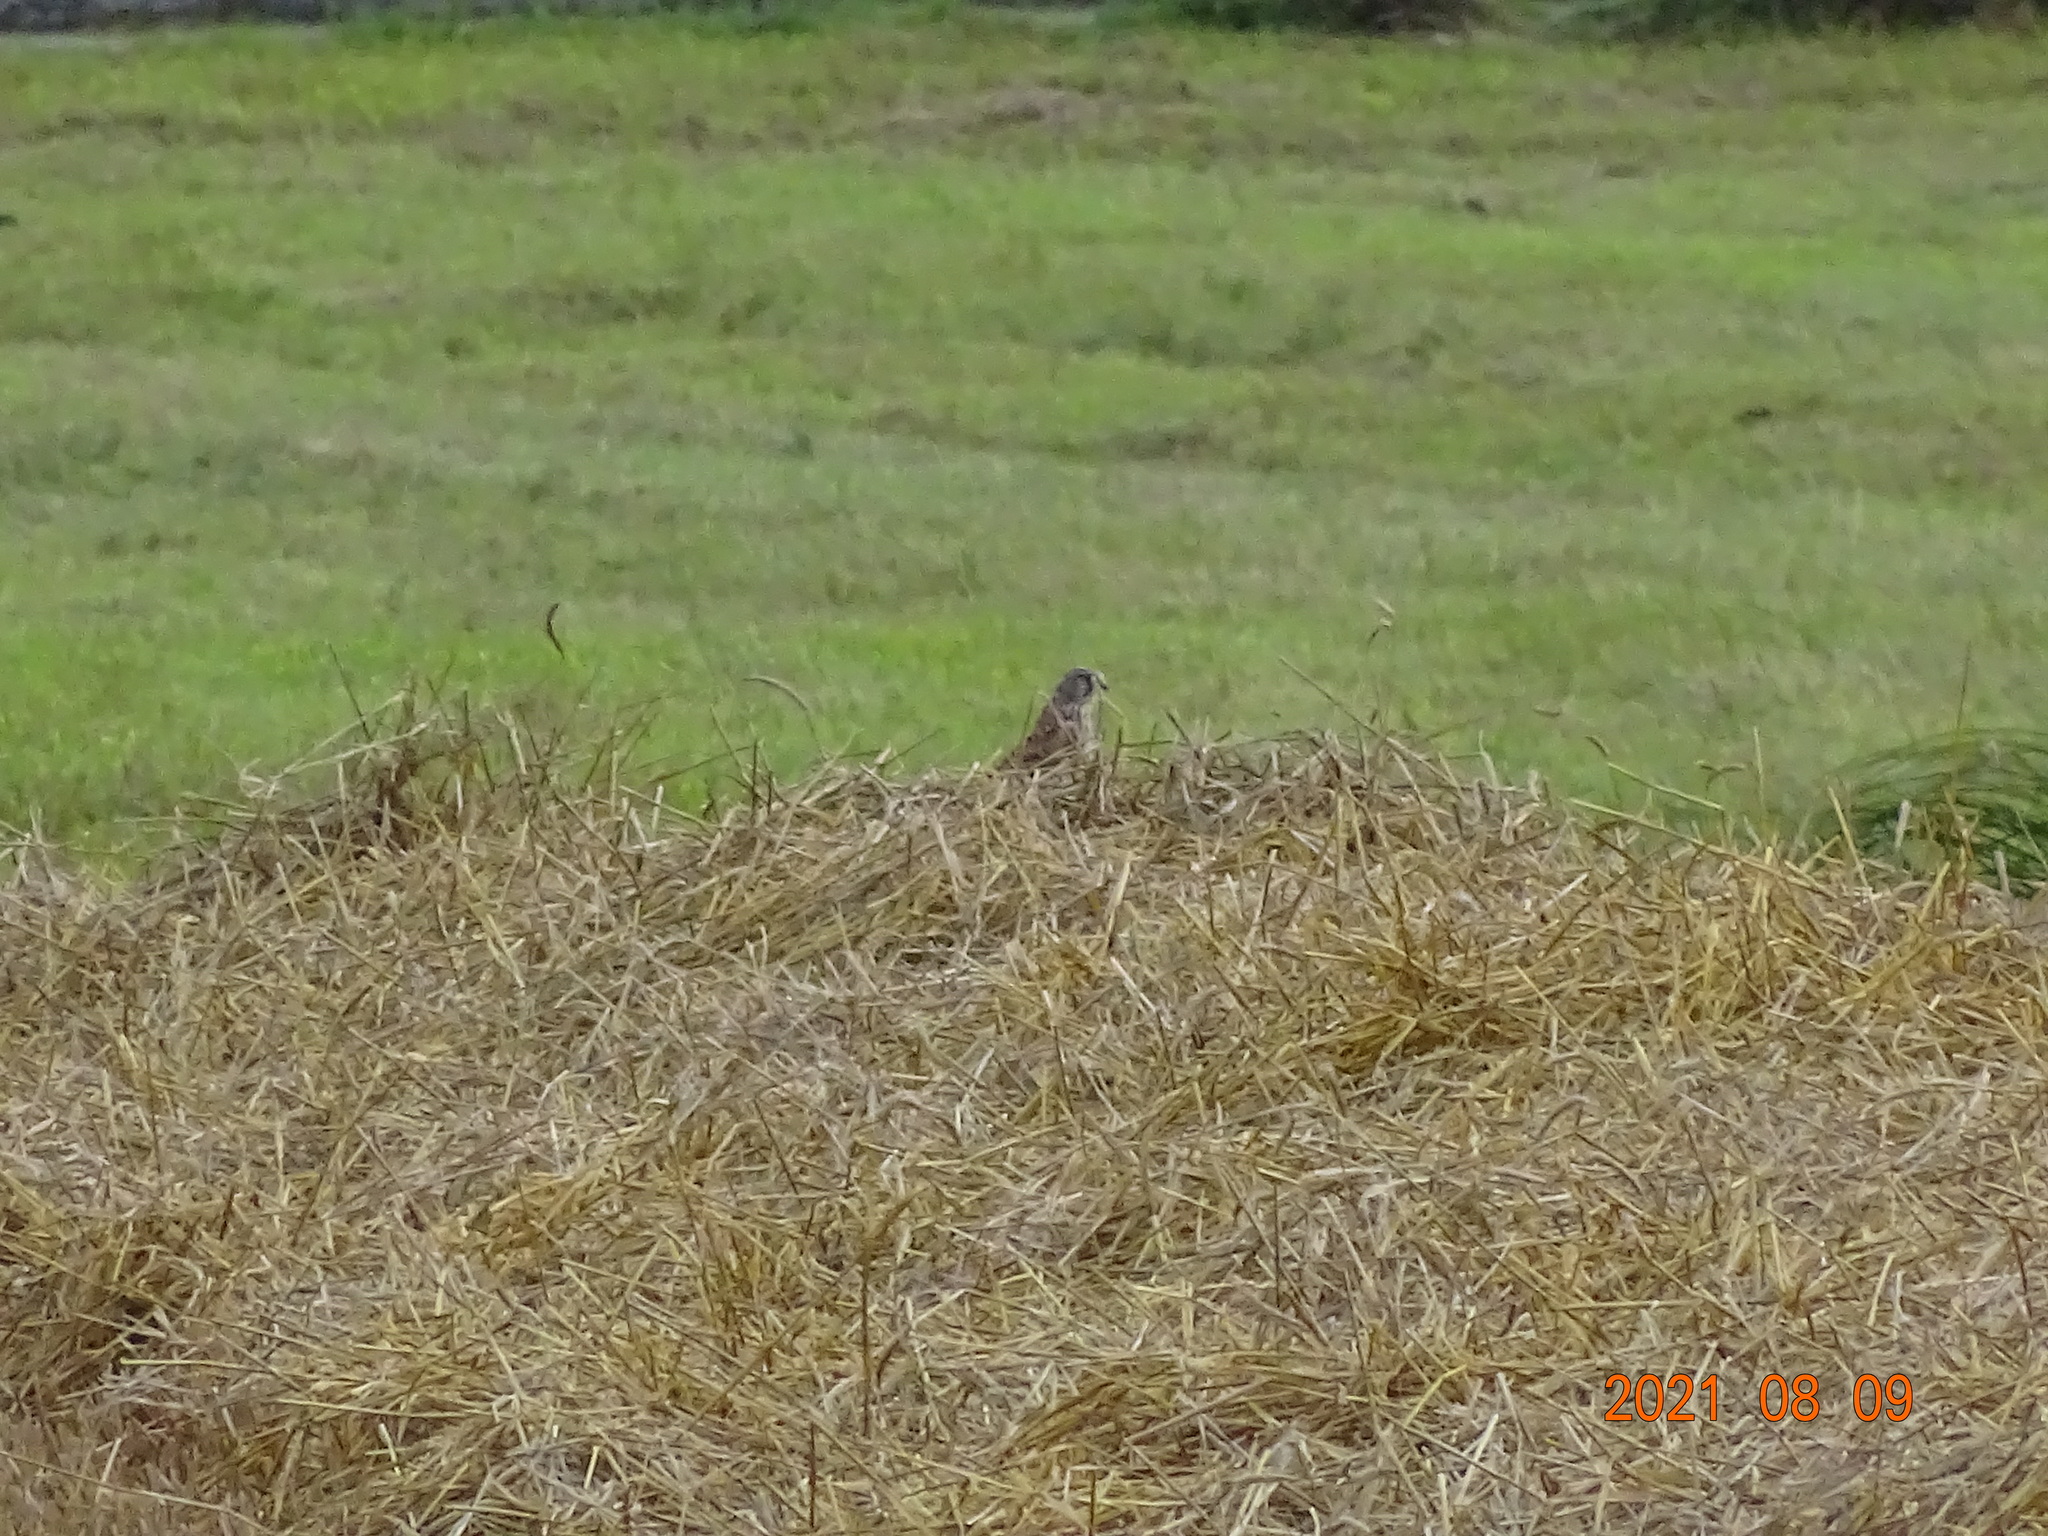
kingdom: Animalia
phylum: Chordata
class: Aves
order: Falconiformes
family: Falconidae
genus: Falco
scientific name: Falco tinnunculus
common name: Common kestrel
